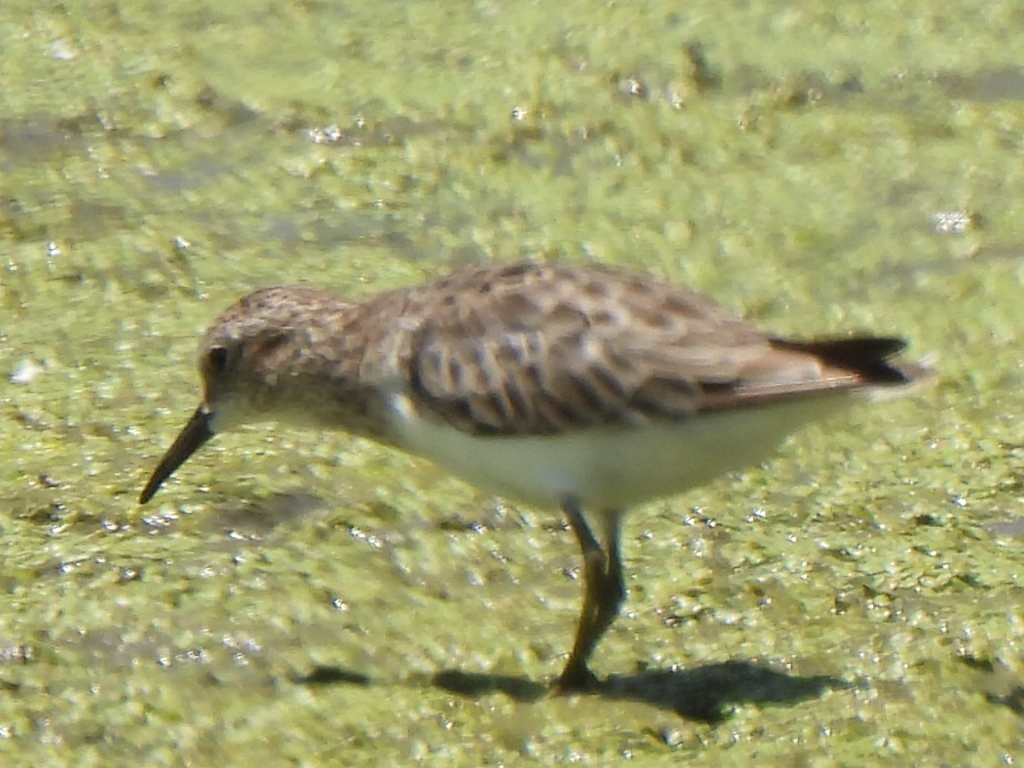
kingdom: Animalia
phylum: Chordata
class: Aves
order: Charadriiformes
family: Scolopacidae
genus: Calidris
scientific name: Calidris minutilla
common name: Least sandpiper
